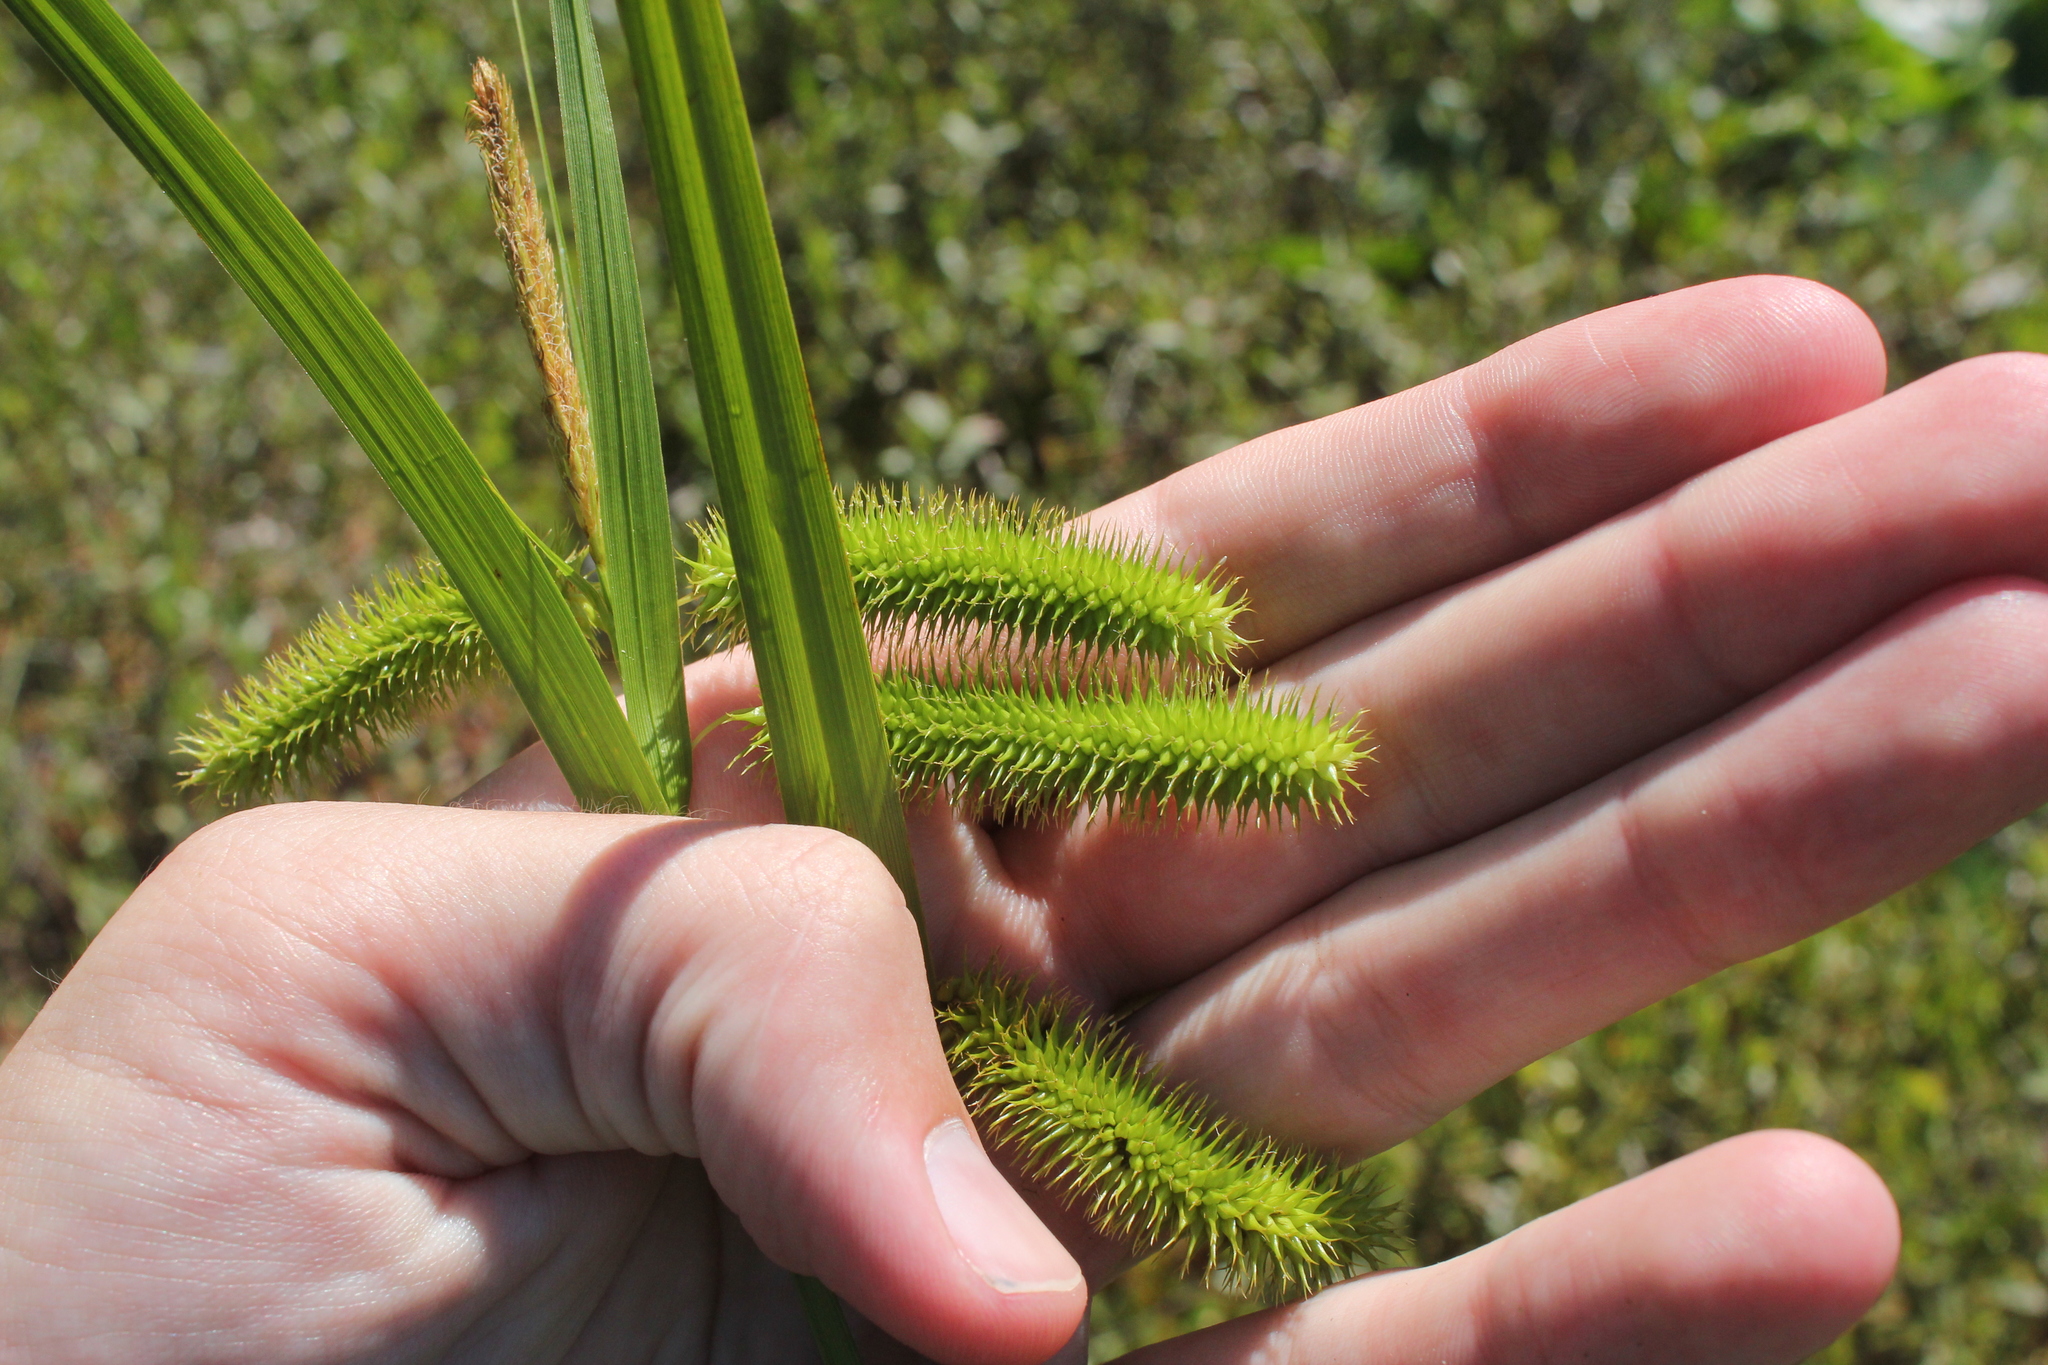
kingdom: Plantae
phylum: Tracheophyta
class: Liliopsida
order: Poales
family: Cyperaceae
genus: Carex
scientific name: Carex comosa
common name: Bristly sedge
